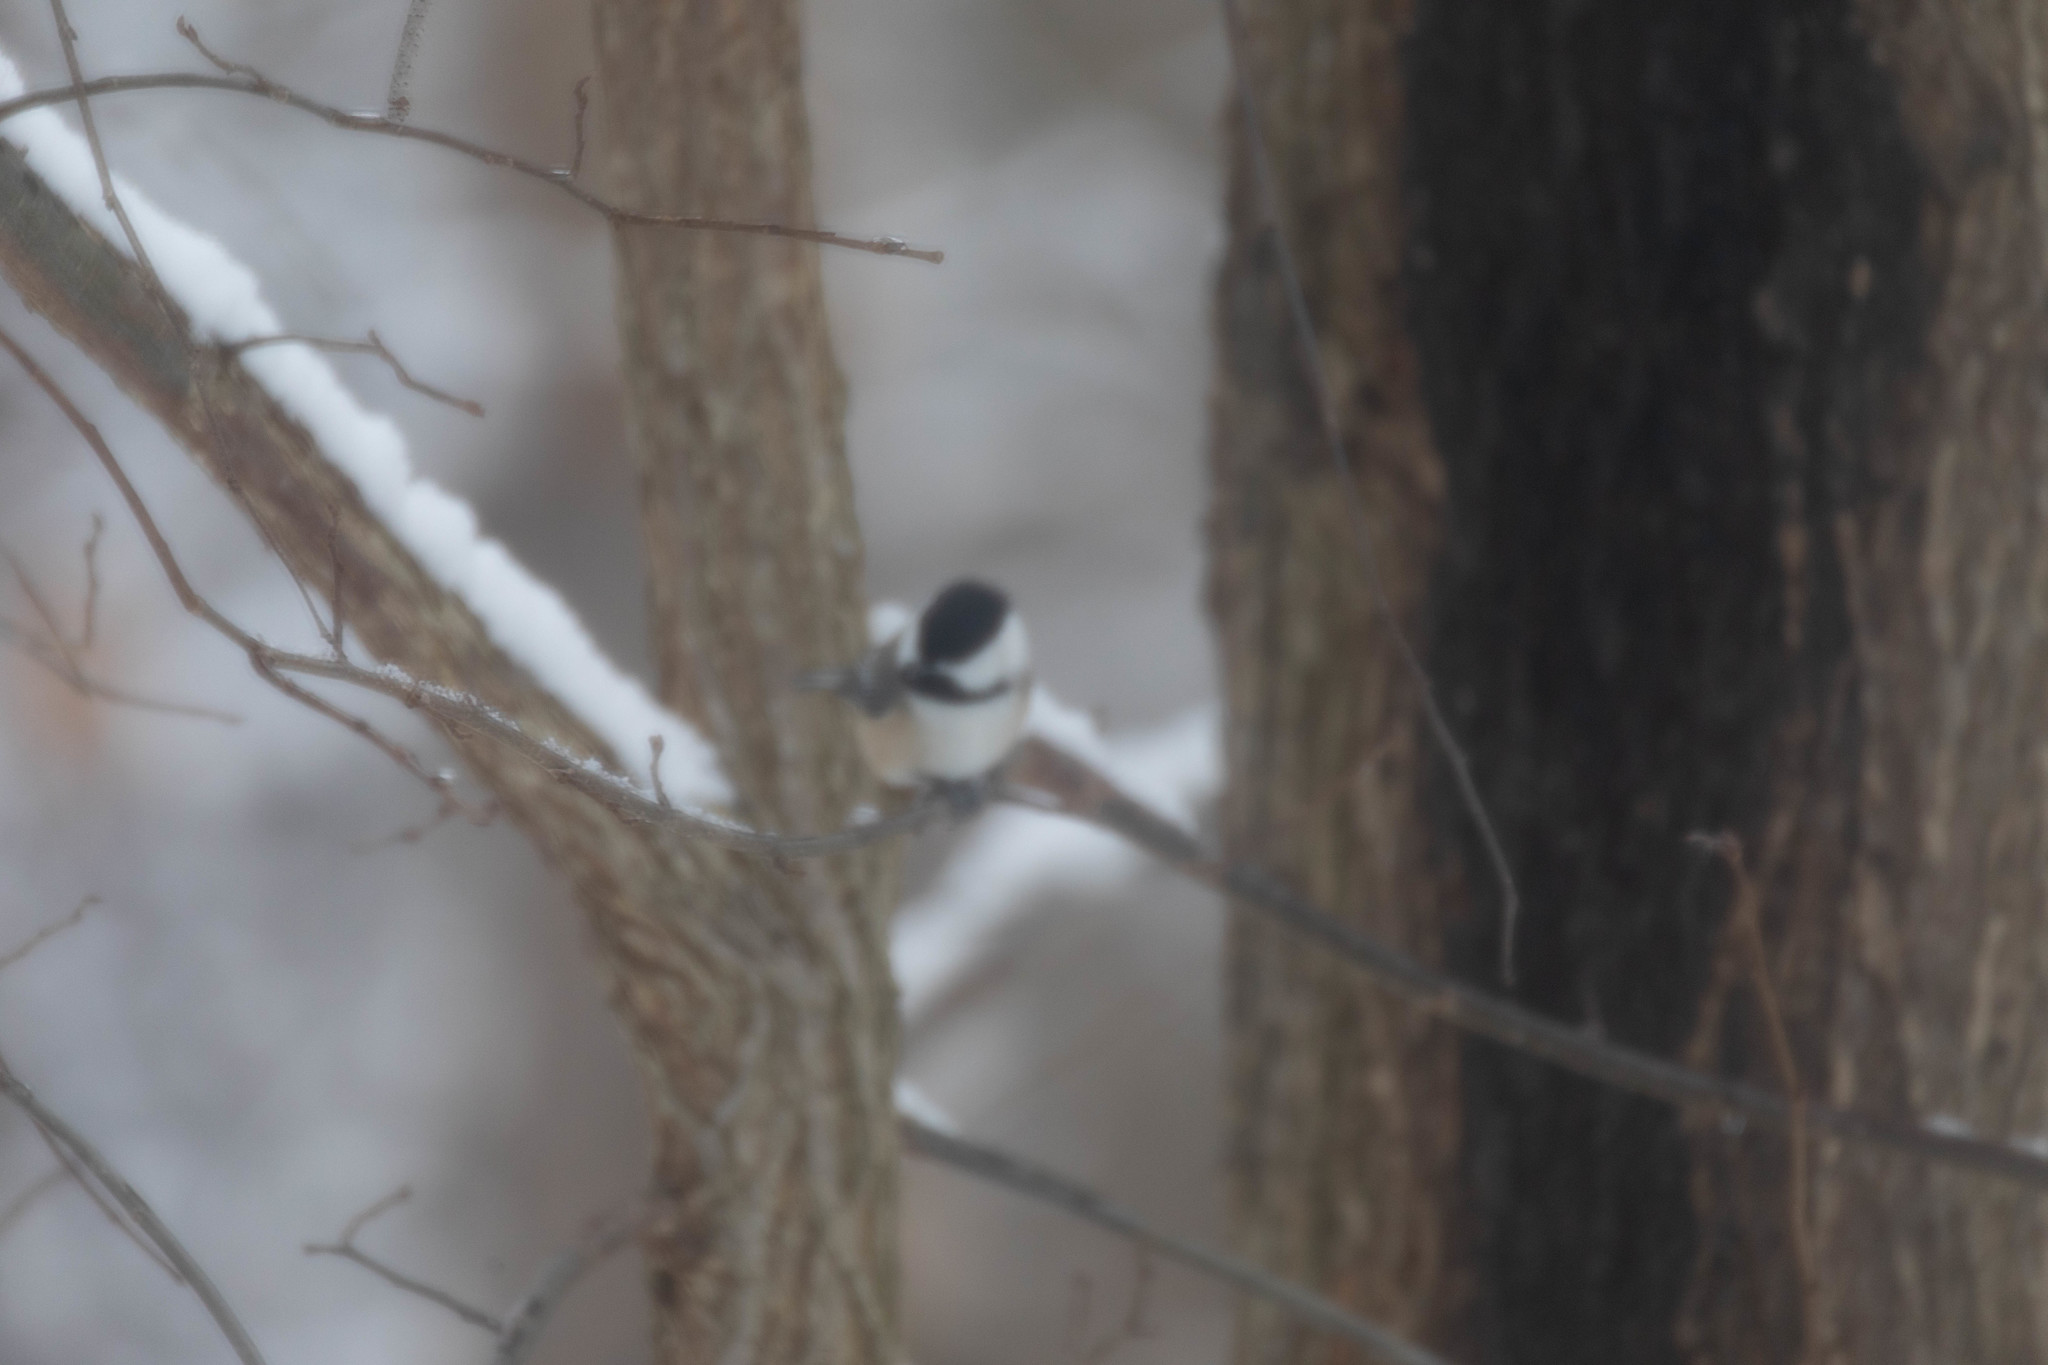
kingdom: Animalia
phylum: Chordata
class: Aves
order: Passeriformes
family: Paridae
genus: Poecile
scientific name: Poecile atricapillus
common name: Black-capped chickadee
